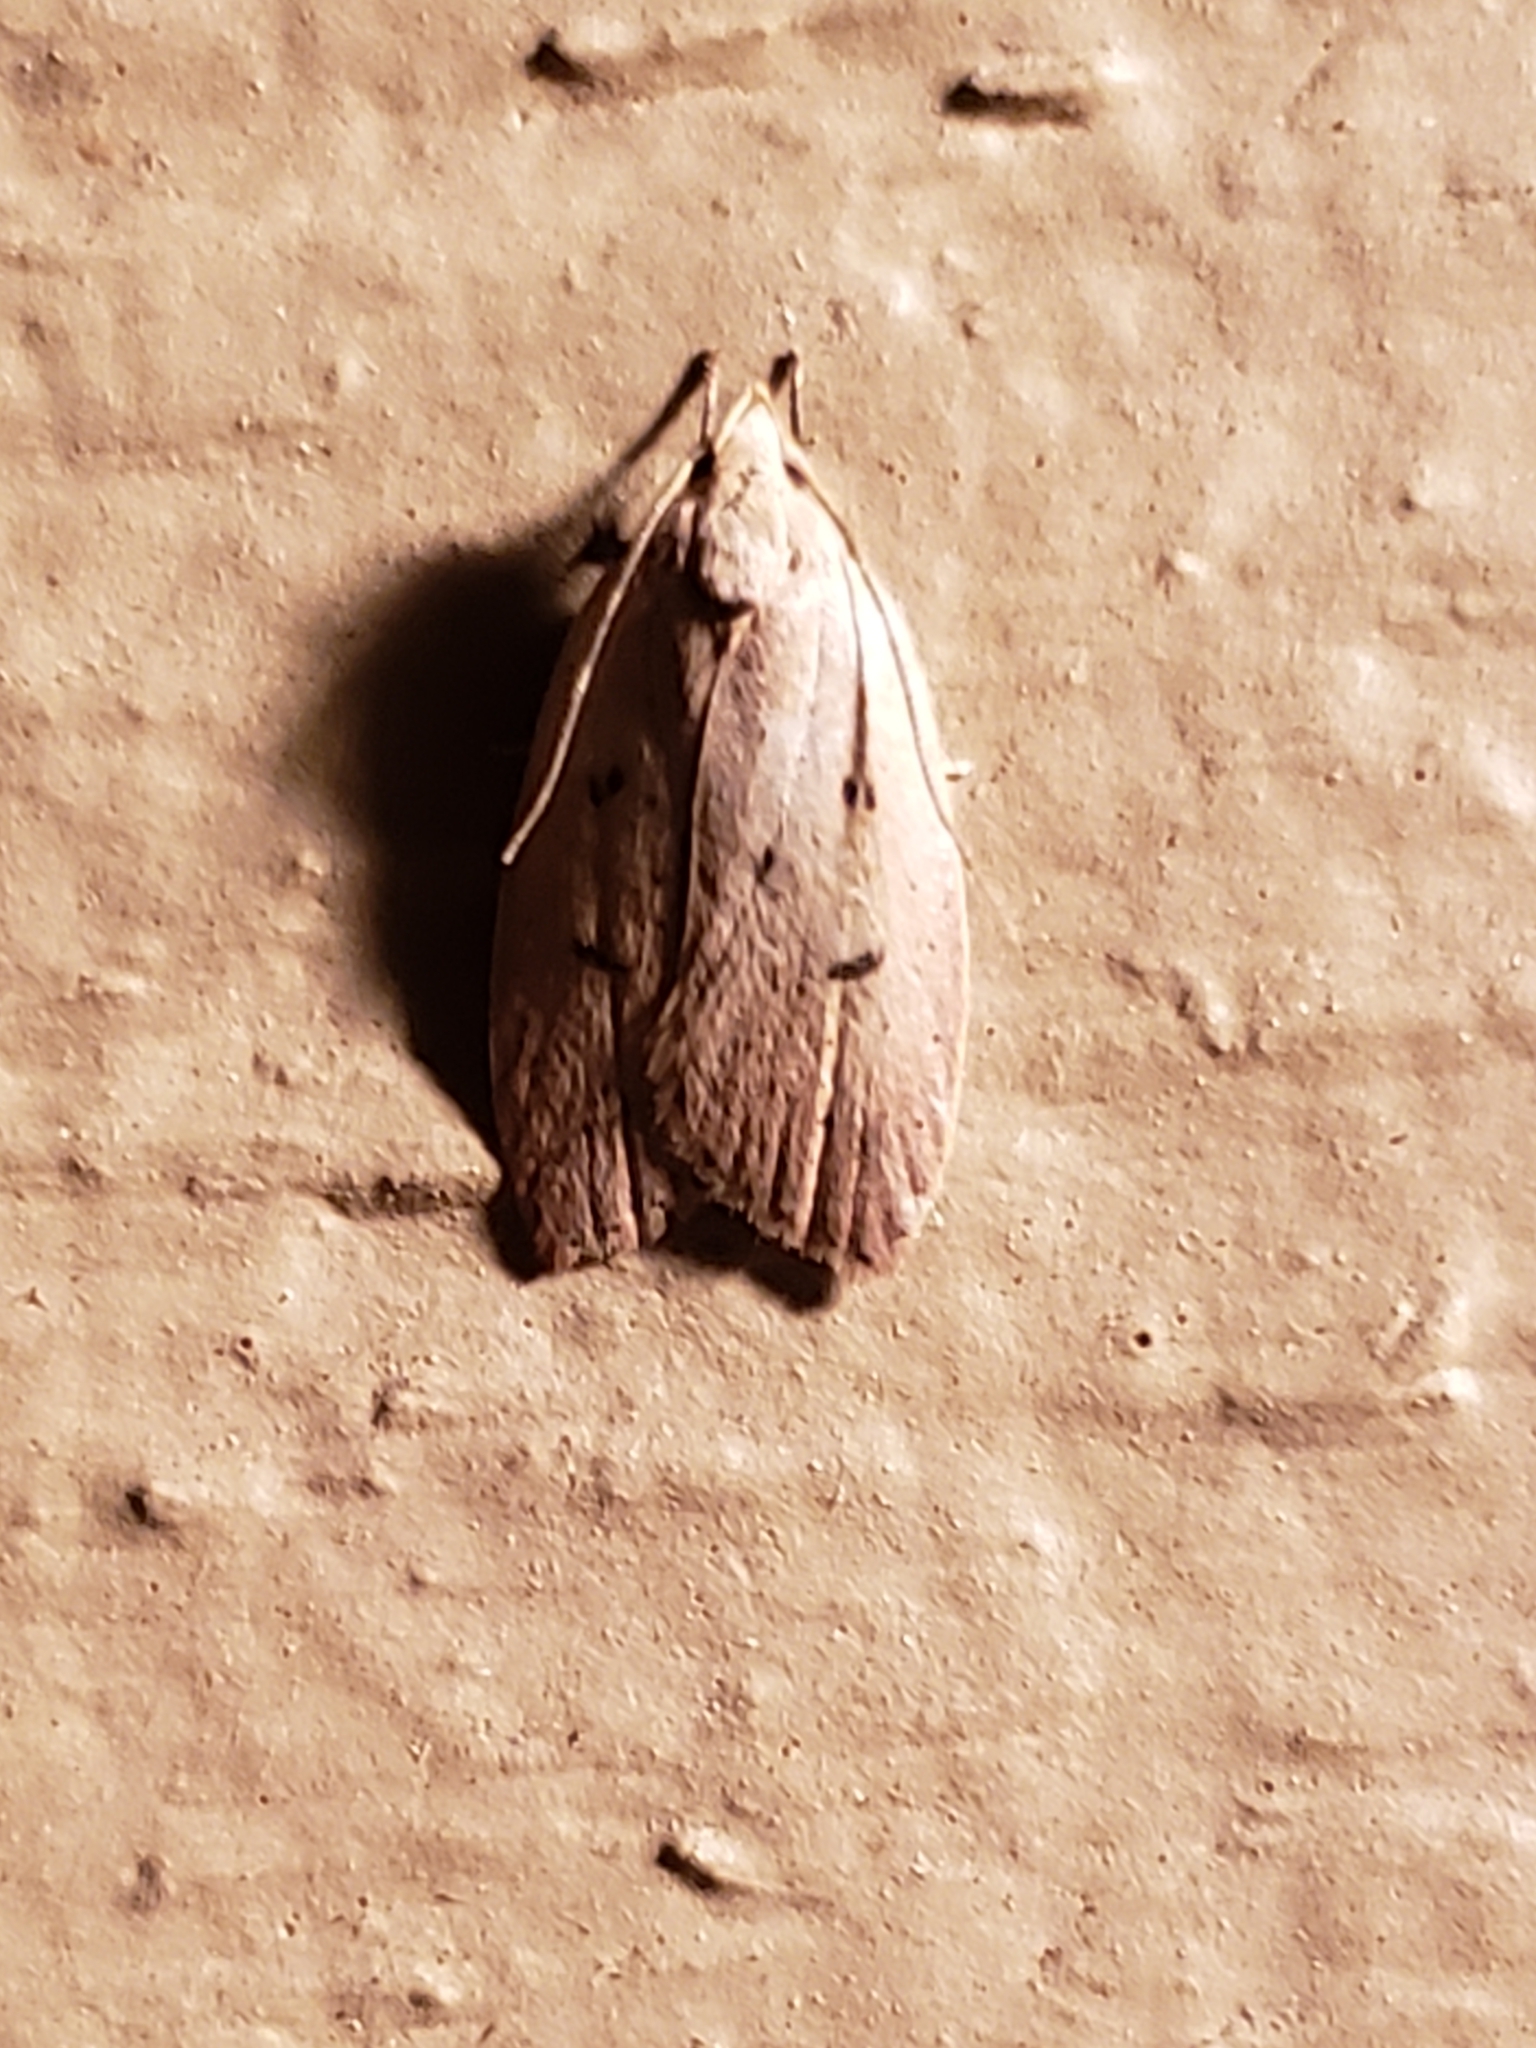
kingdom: Animalia
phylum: Arthropoda
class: Insecta
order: Lepidoptera
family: Peleopodidae
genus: Machimia
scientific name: Machimia tentoriferella
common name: Gold-striped leaftier moth
